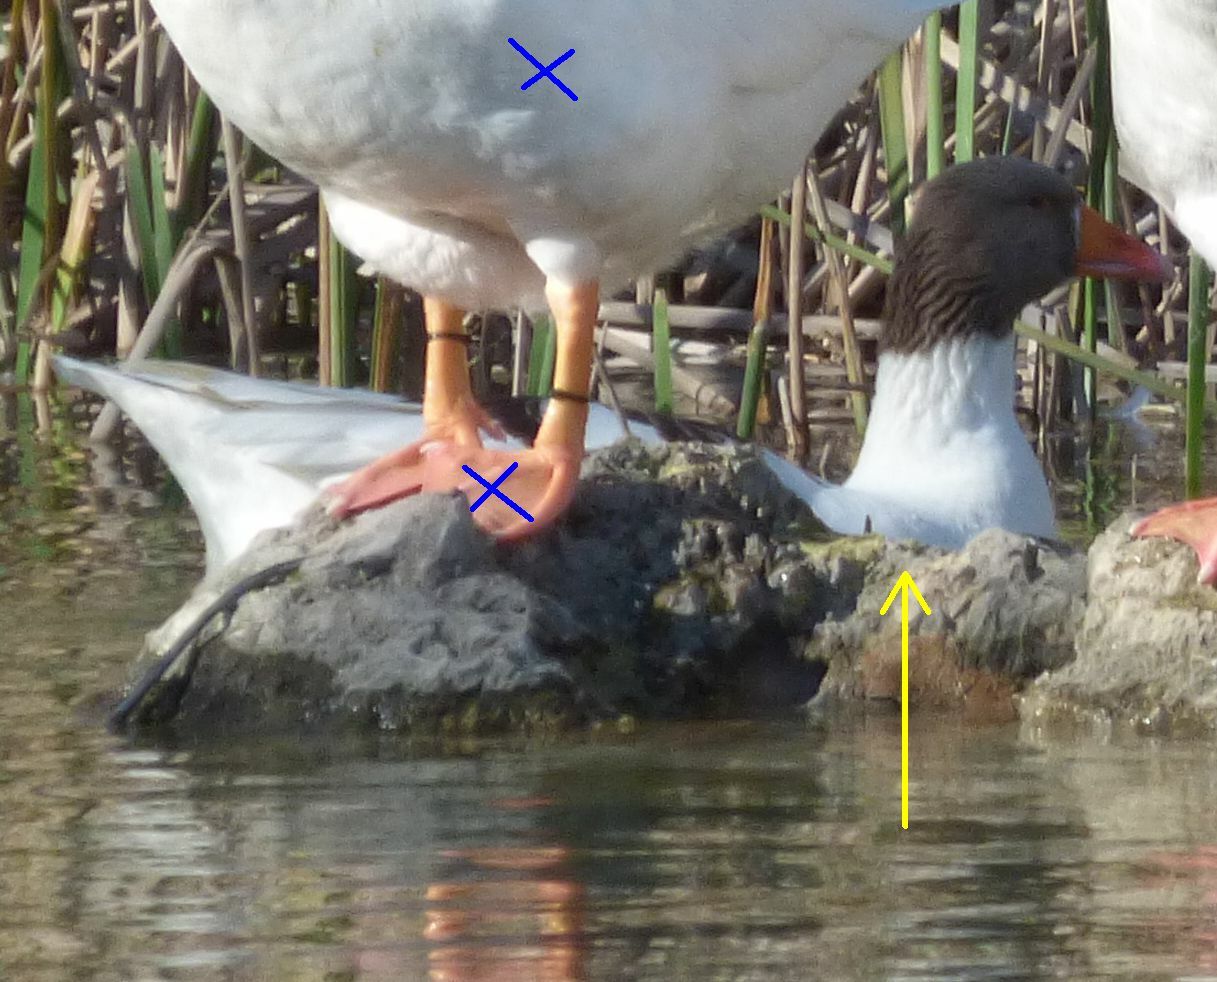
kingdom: Animalia
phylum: Chordata
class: Aves
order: Anseriformes
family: Anatidae
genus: Anser
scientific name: Anser anser
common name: Greylag goose
